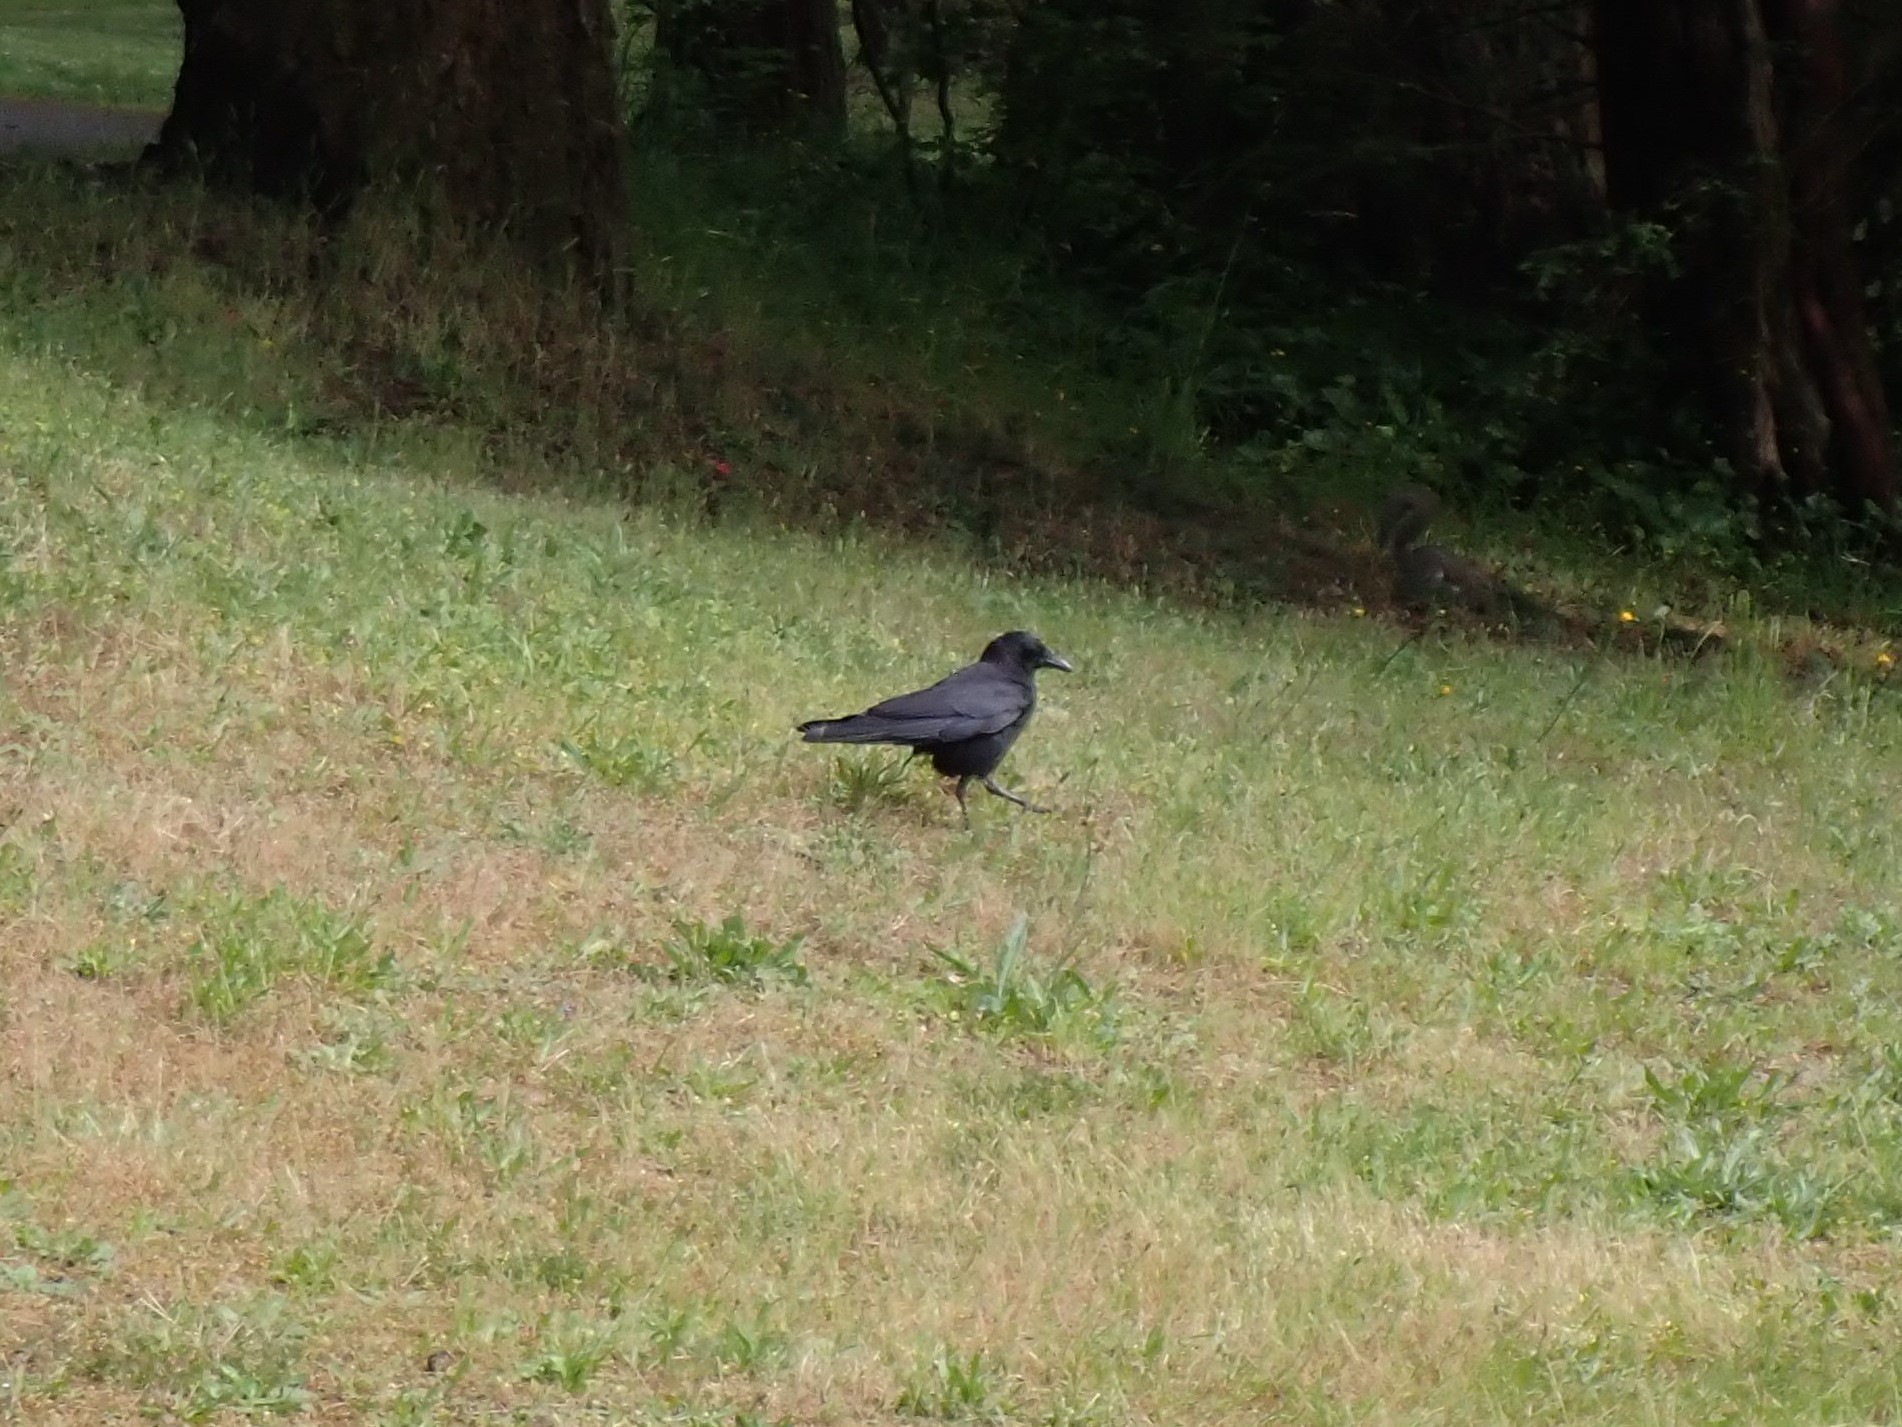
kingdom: Animalia
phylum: Chordata
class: Aves
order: Passeriformes
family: Corvidae
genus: Corvus
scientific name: Corvus brachyrhynchos
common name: American crow
